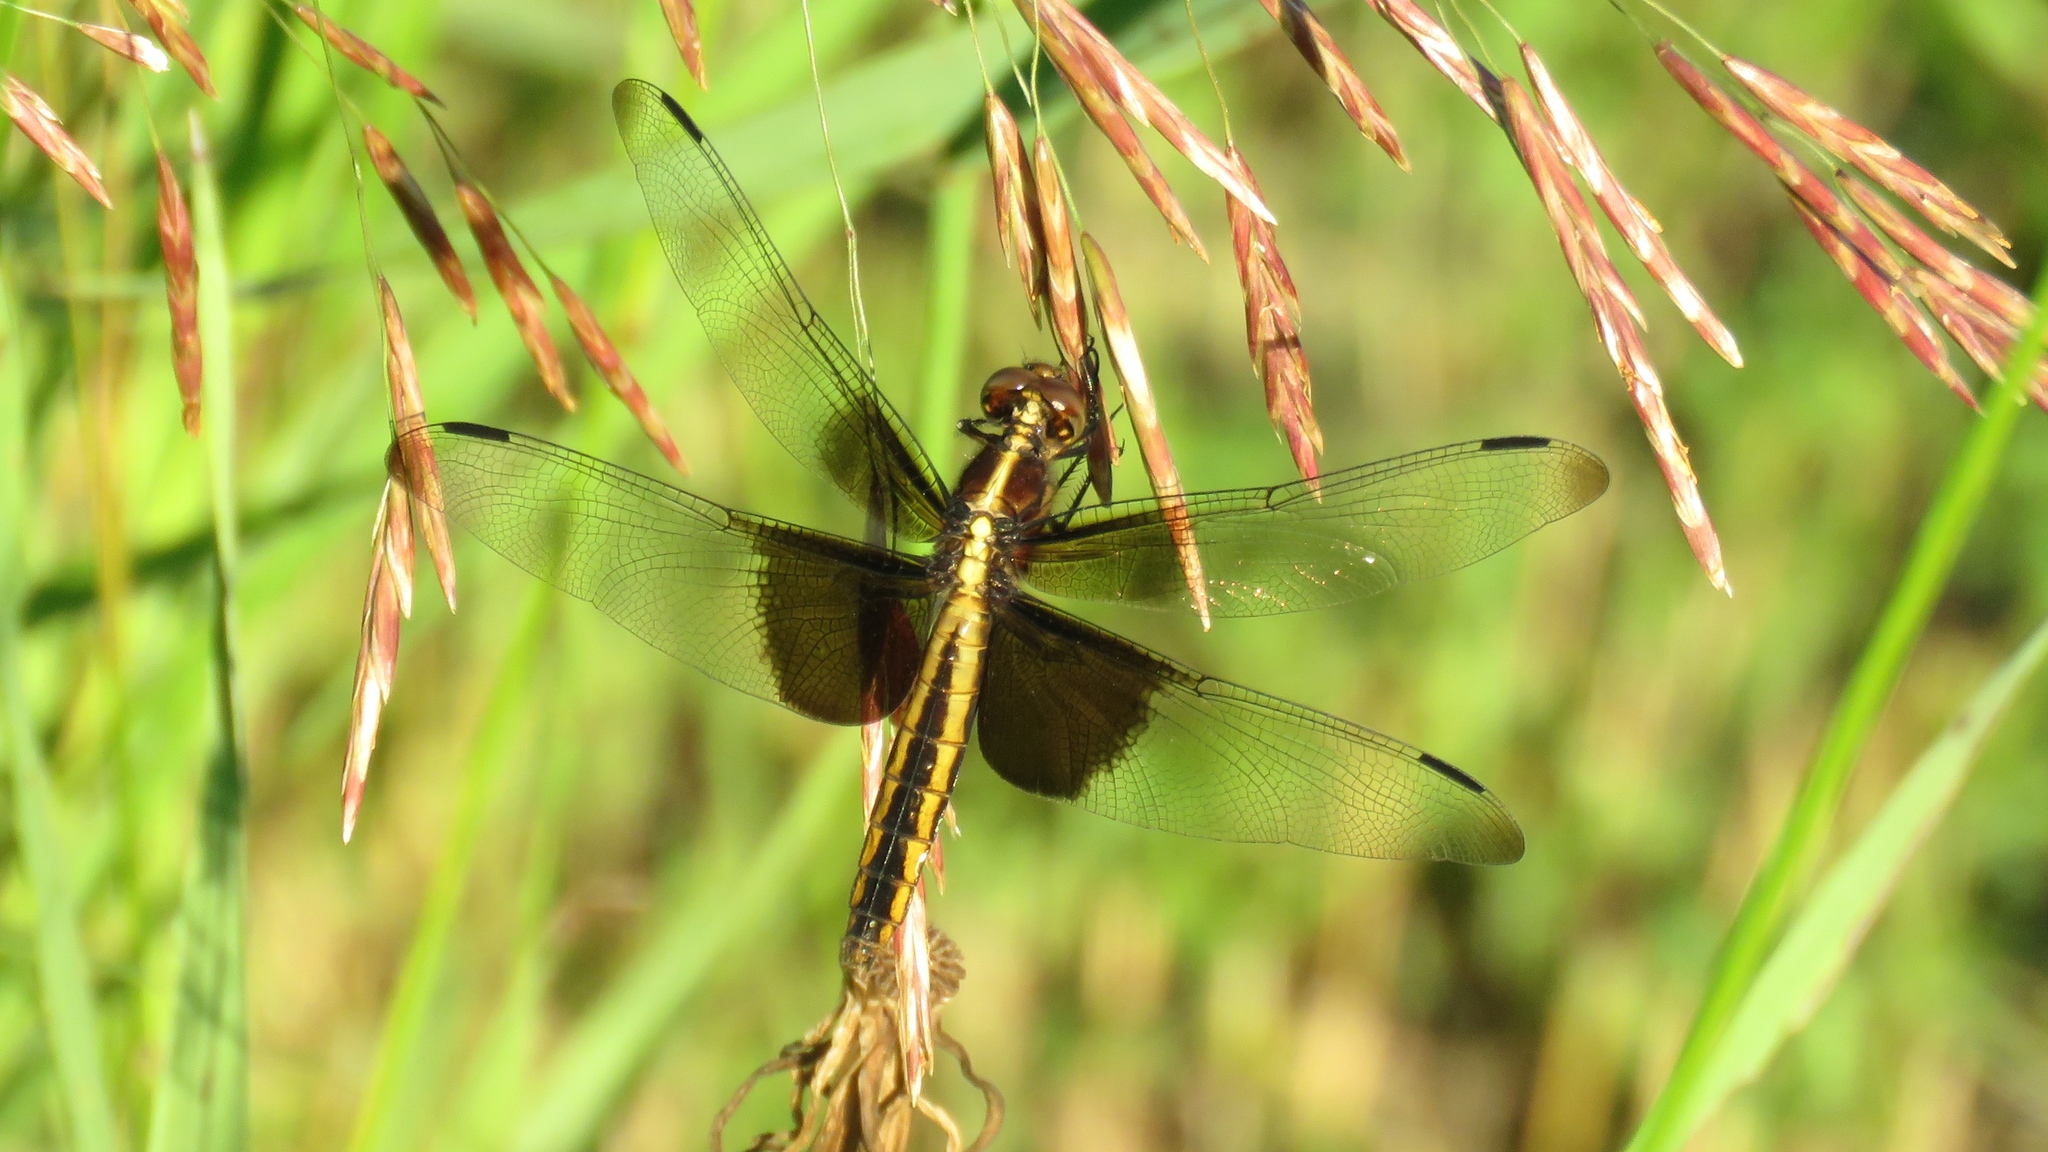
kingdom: Animalia
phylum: Arthropoda
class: Insecta
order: Odonata
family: Libellulidae
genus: Libellula
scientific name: Libellula luctuosa
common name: Widow skimmer
